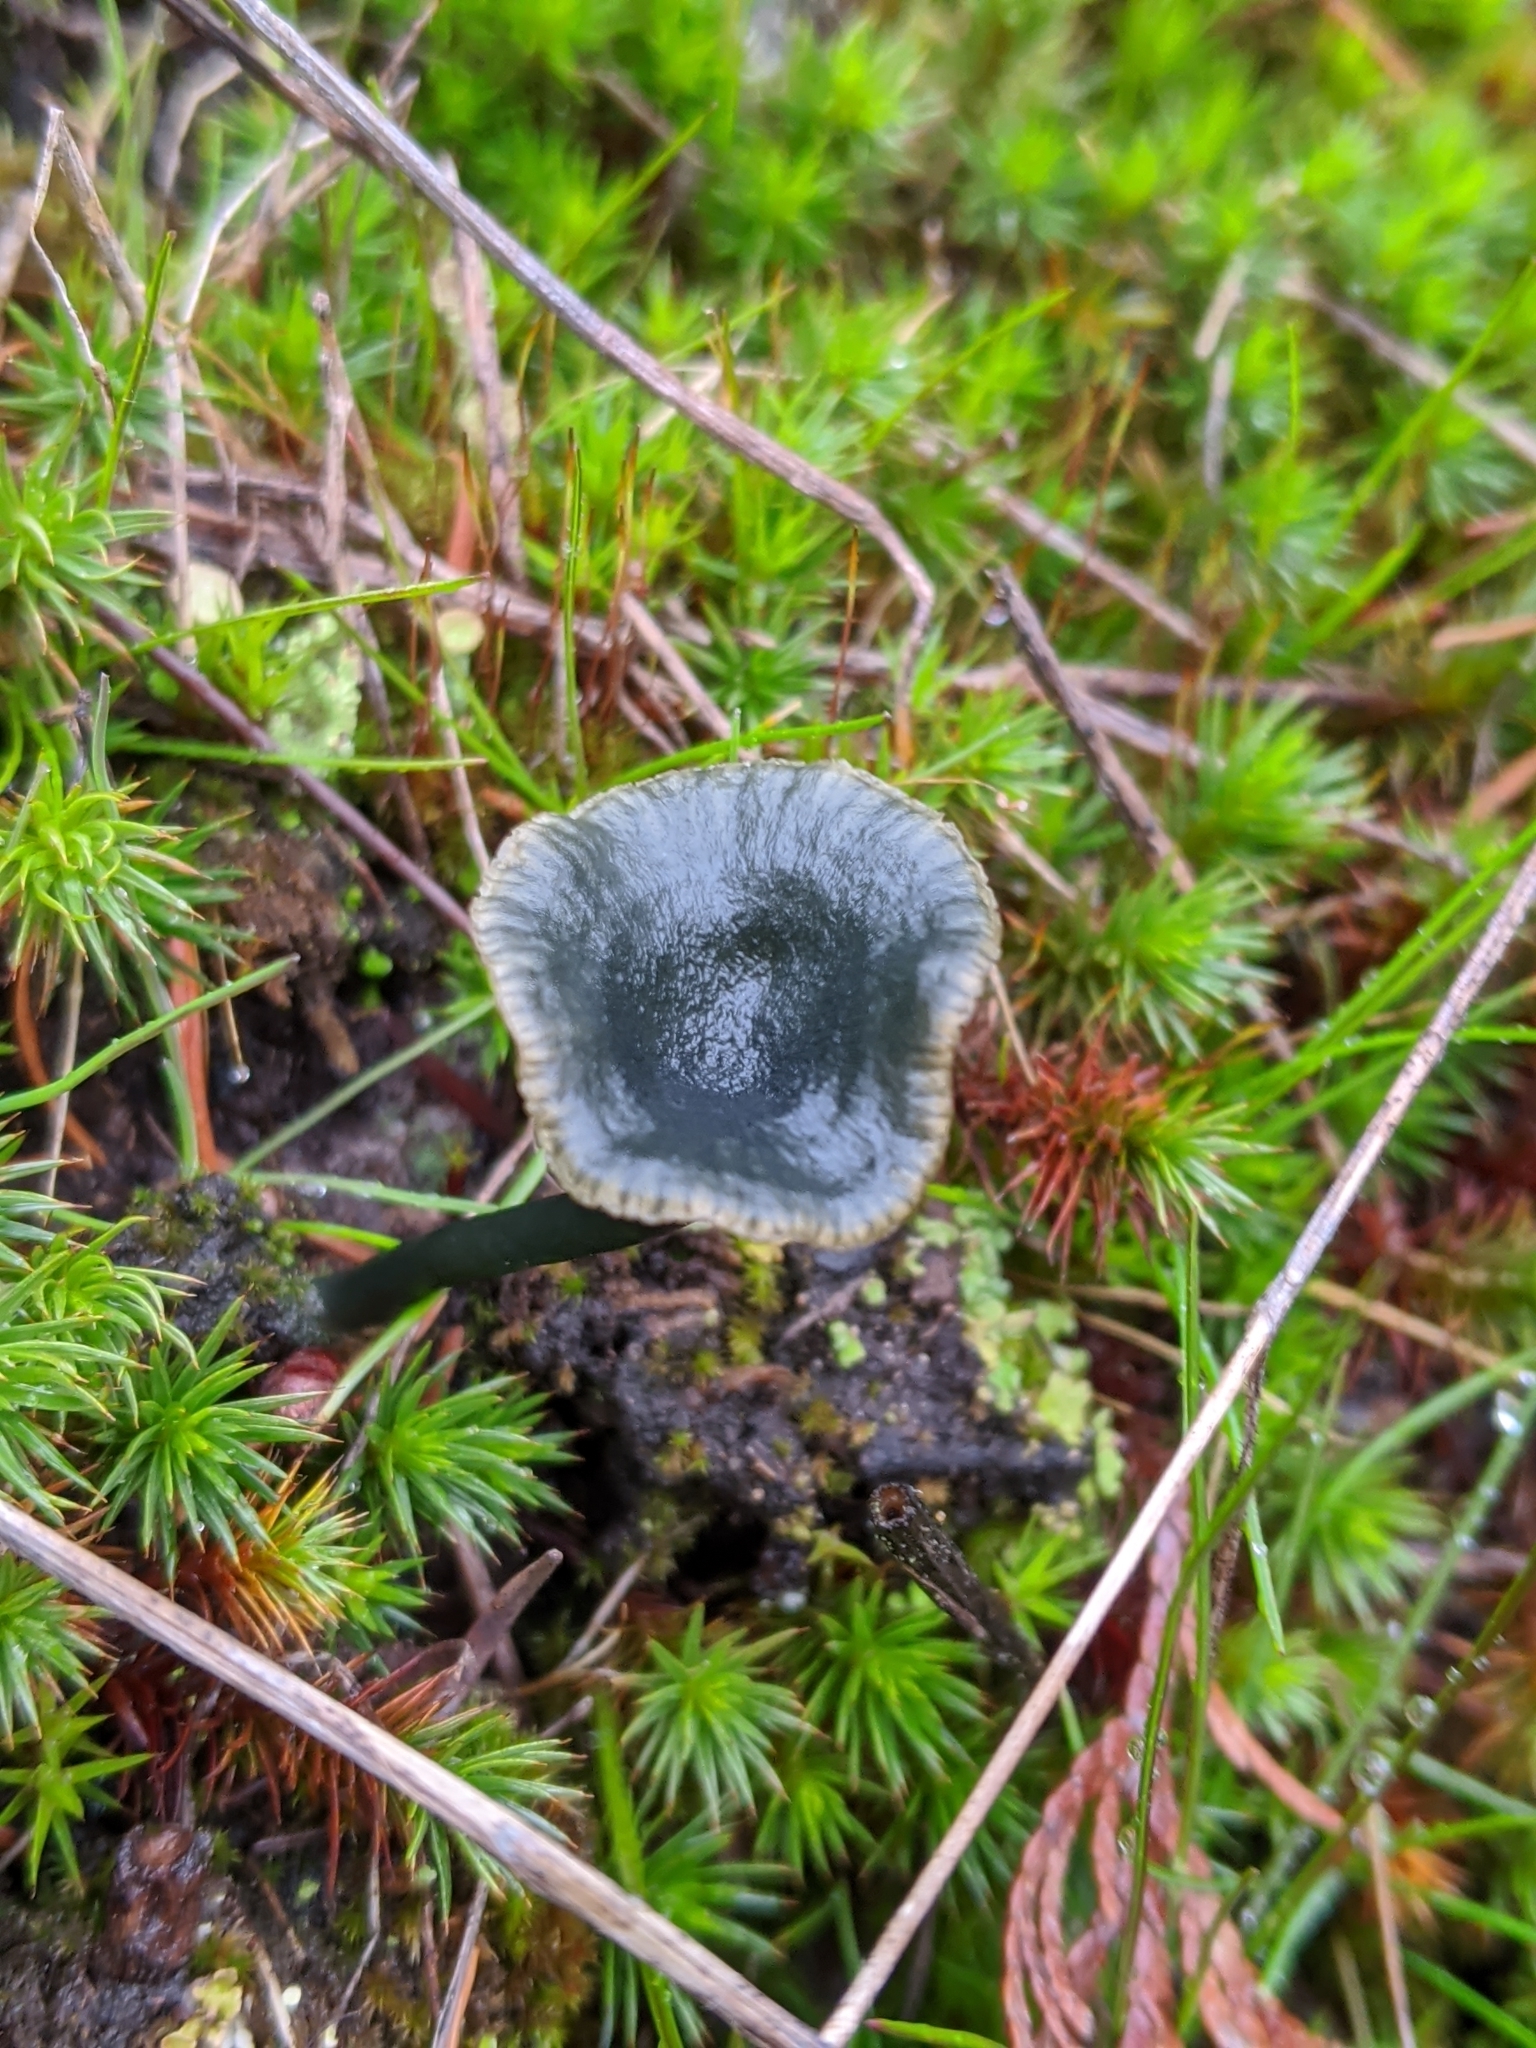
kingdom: Fungi
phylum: Basidiomycota
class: Agaricomycetes
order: Agaricales
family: Hygrophoraceae
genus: Arrhenia
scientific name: Arrhenia chlorocyanea
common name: Verdigris navel
